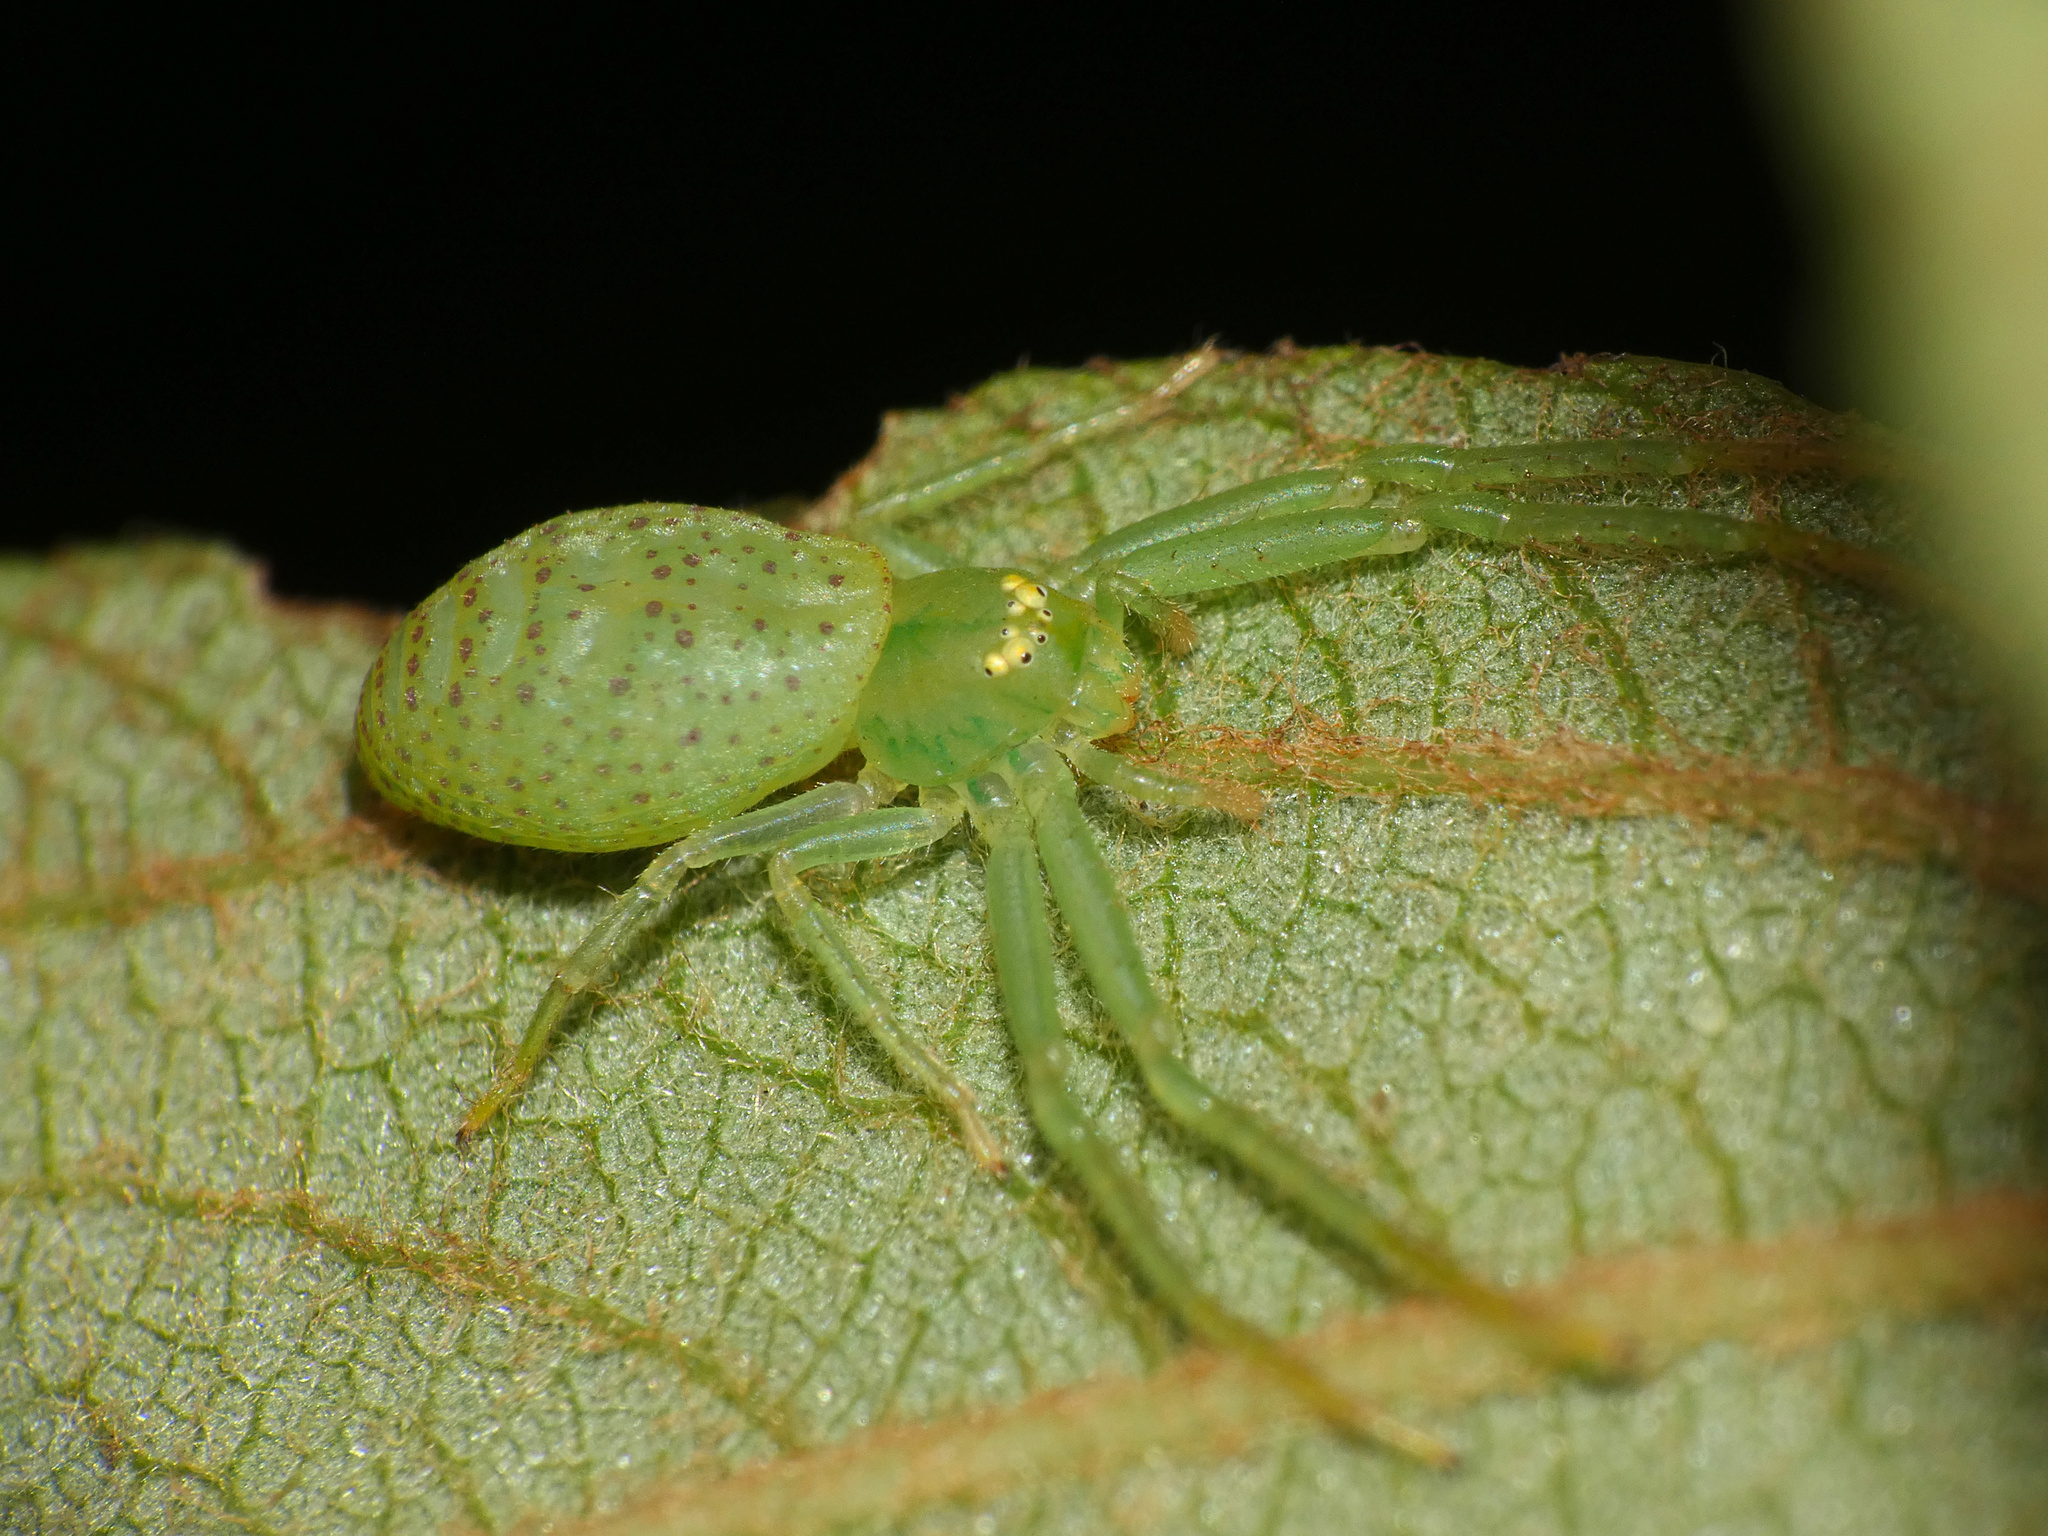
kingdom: Animalia
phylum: Arthropoda
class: Arachnida
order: Araneae
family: Thomisidae
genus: Oxytate
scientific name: Oxytate concolor
